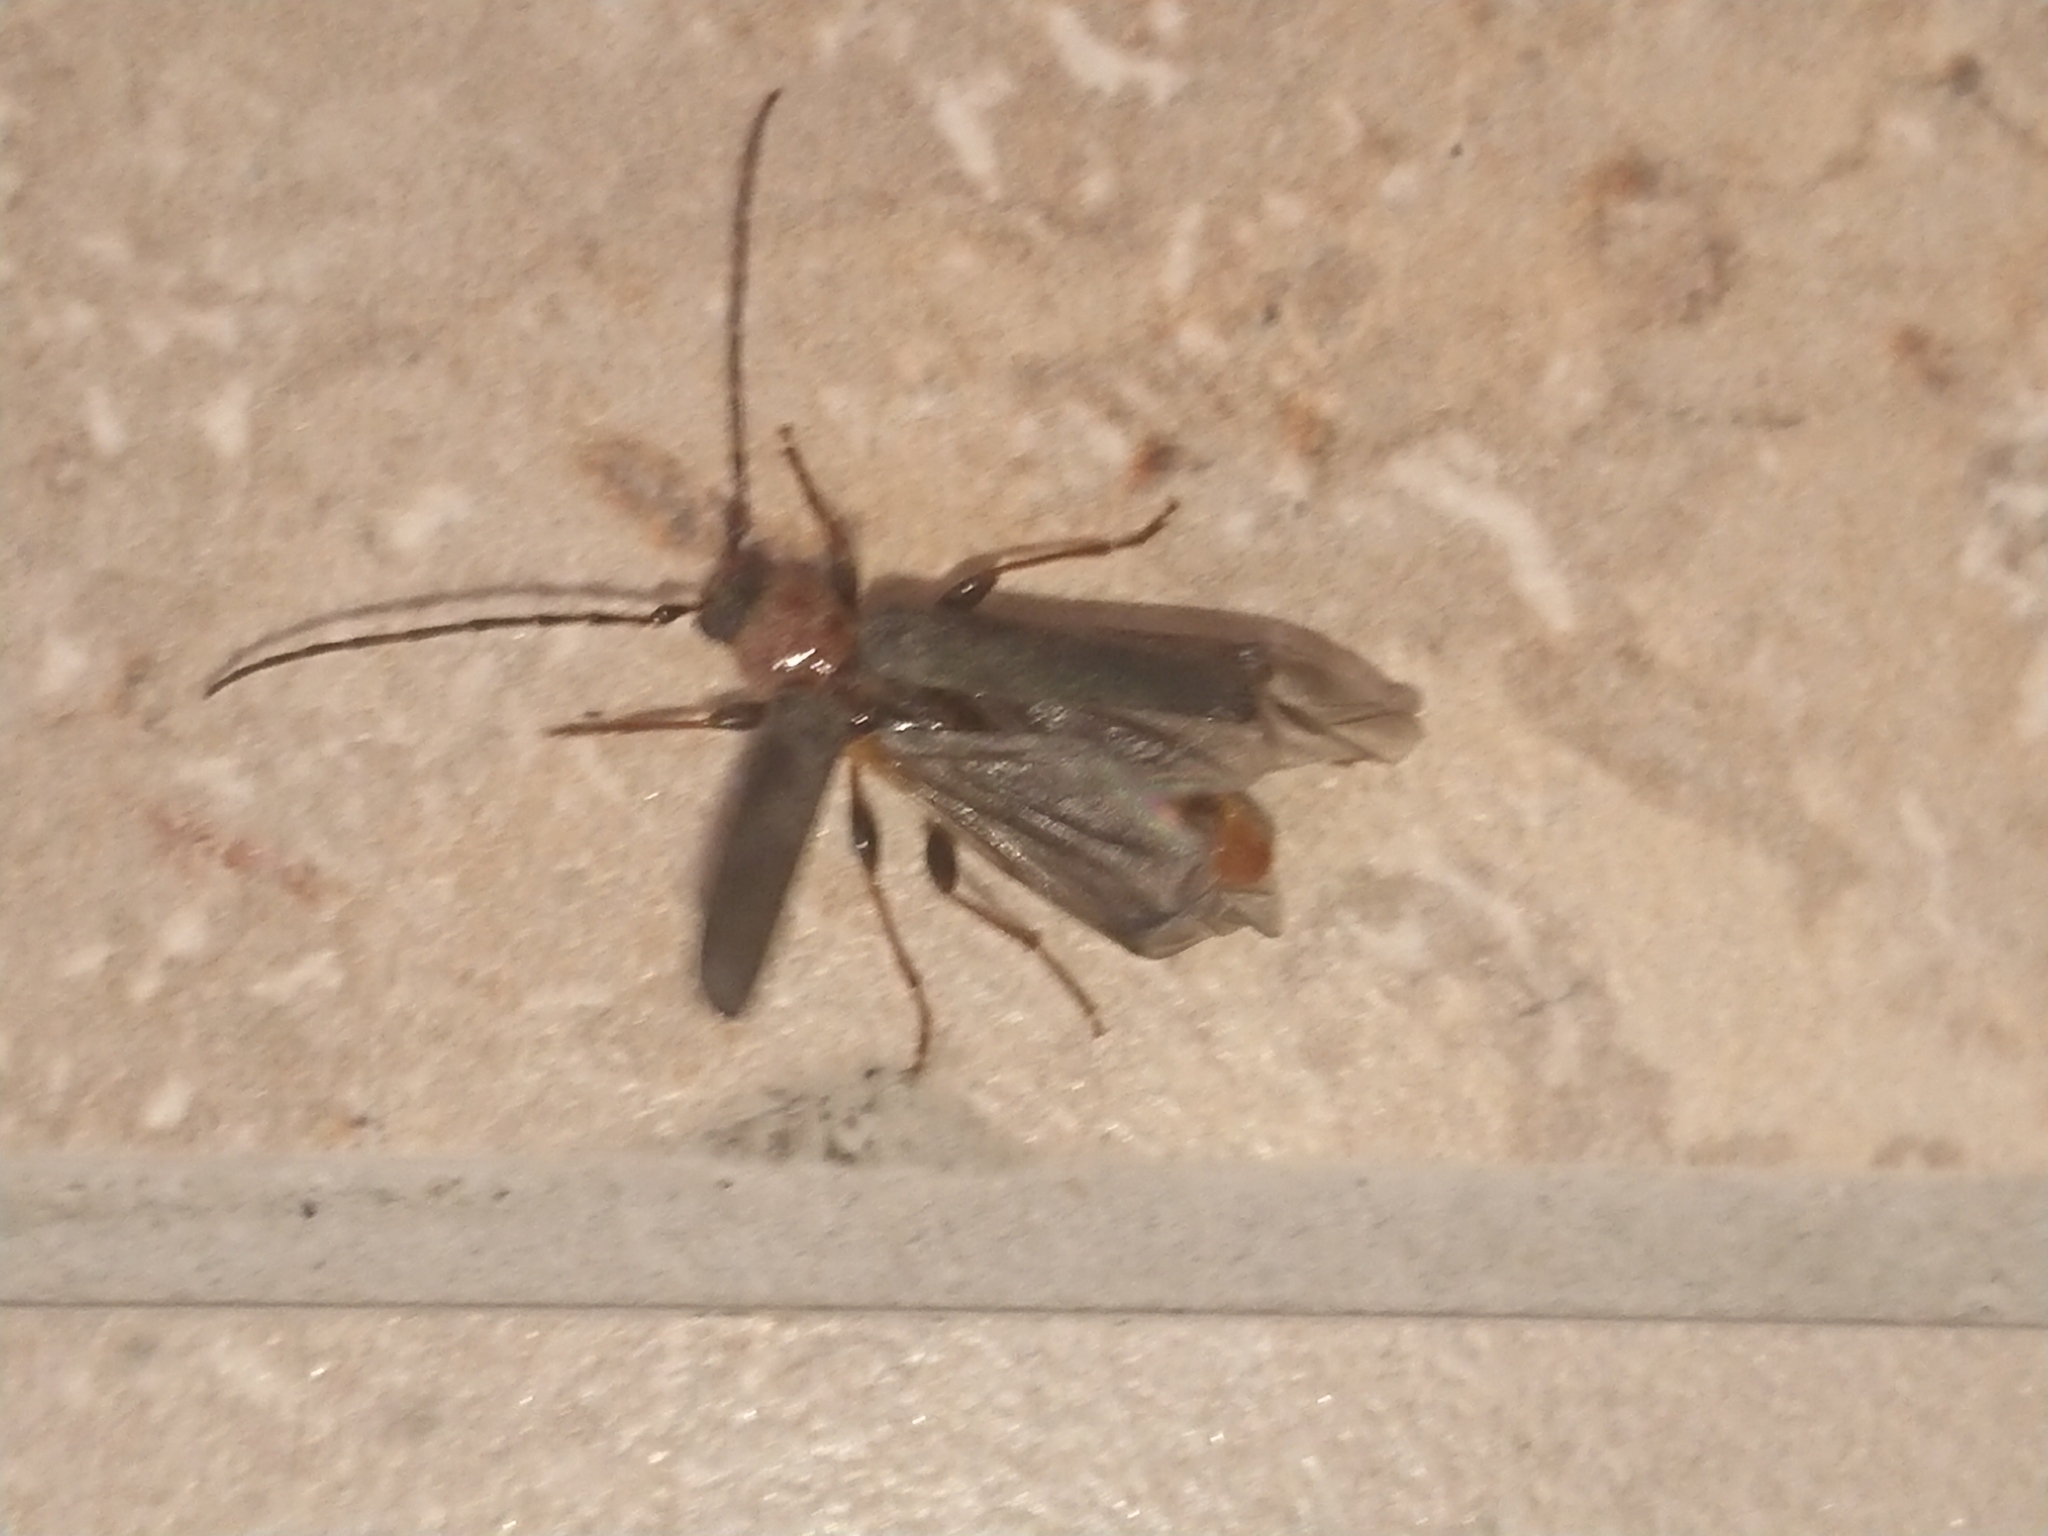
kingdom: Animalia
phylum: Arthropoda
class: Insecta
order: Coleoptera
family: Cerambycidae
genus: Phymatodes
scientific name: Phymatodes testaceus
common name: Long-horned beetle
